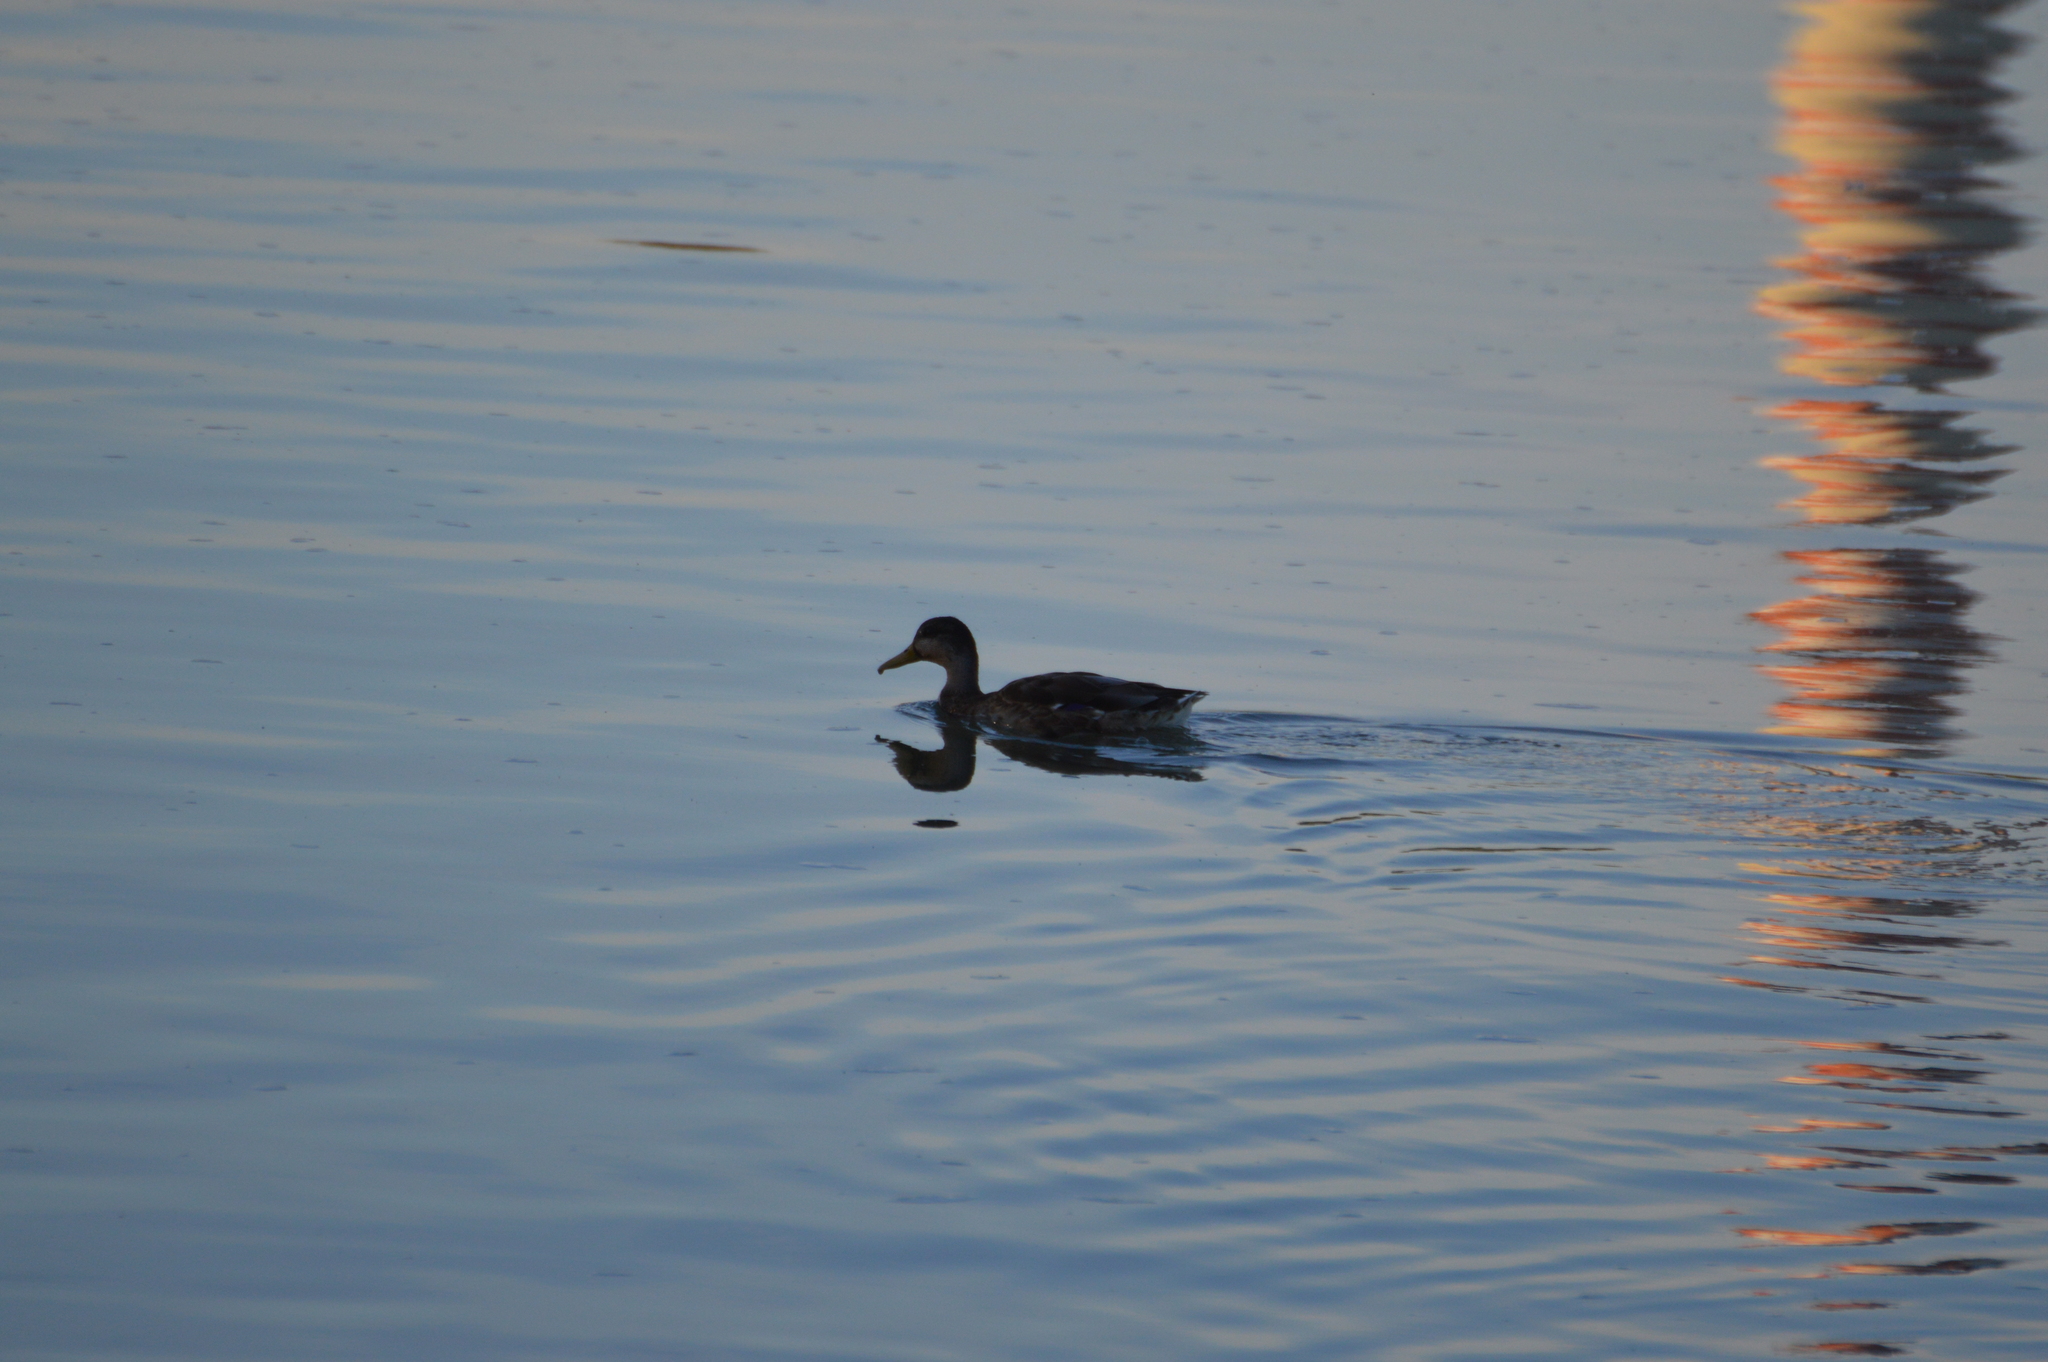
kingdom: Animalia
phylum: Chordata
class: Aves
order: Anseriformes
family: Anatidae
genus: Anas
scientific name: Anas platyrhynchos
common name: Mallard
